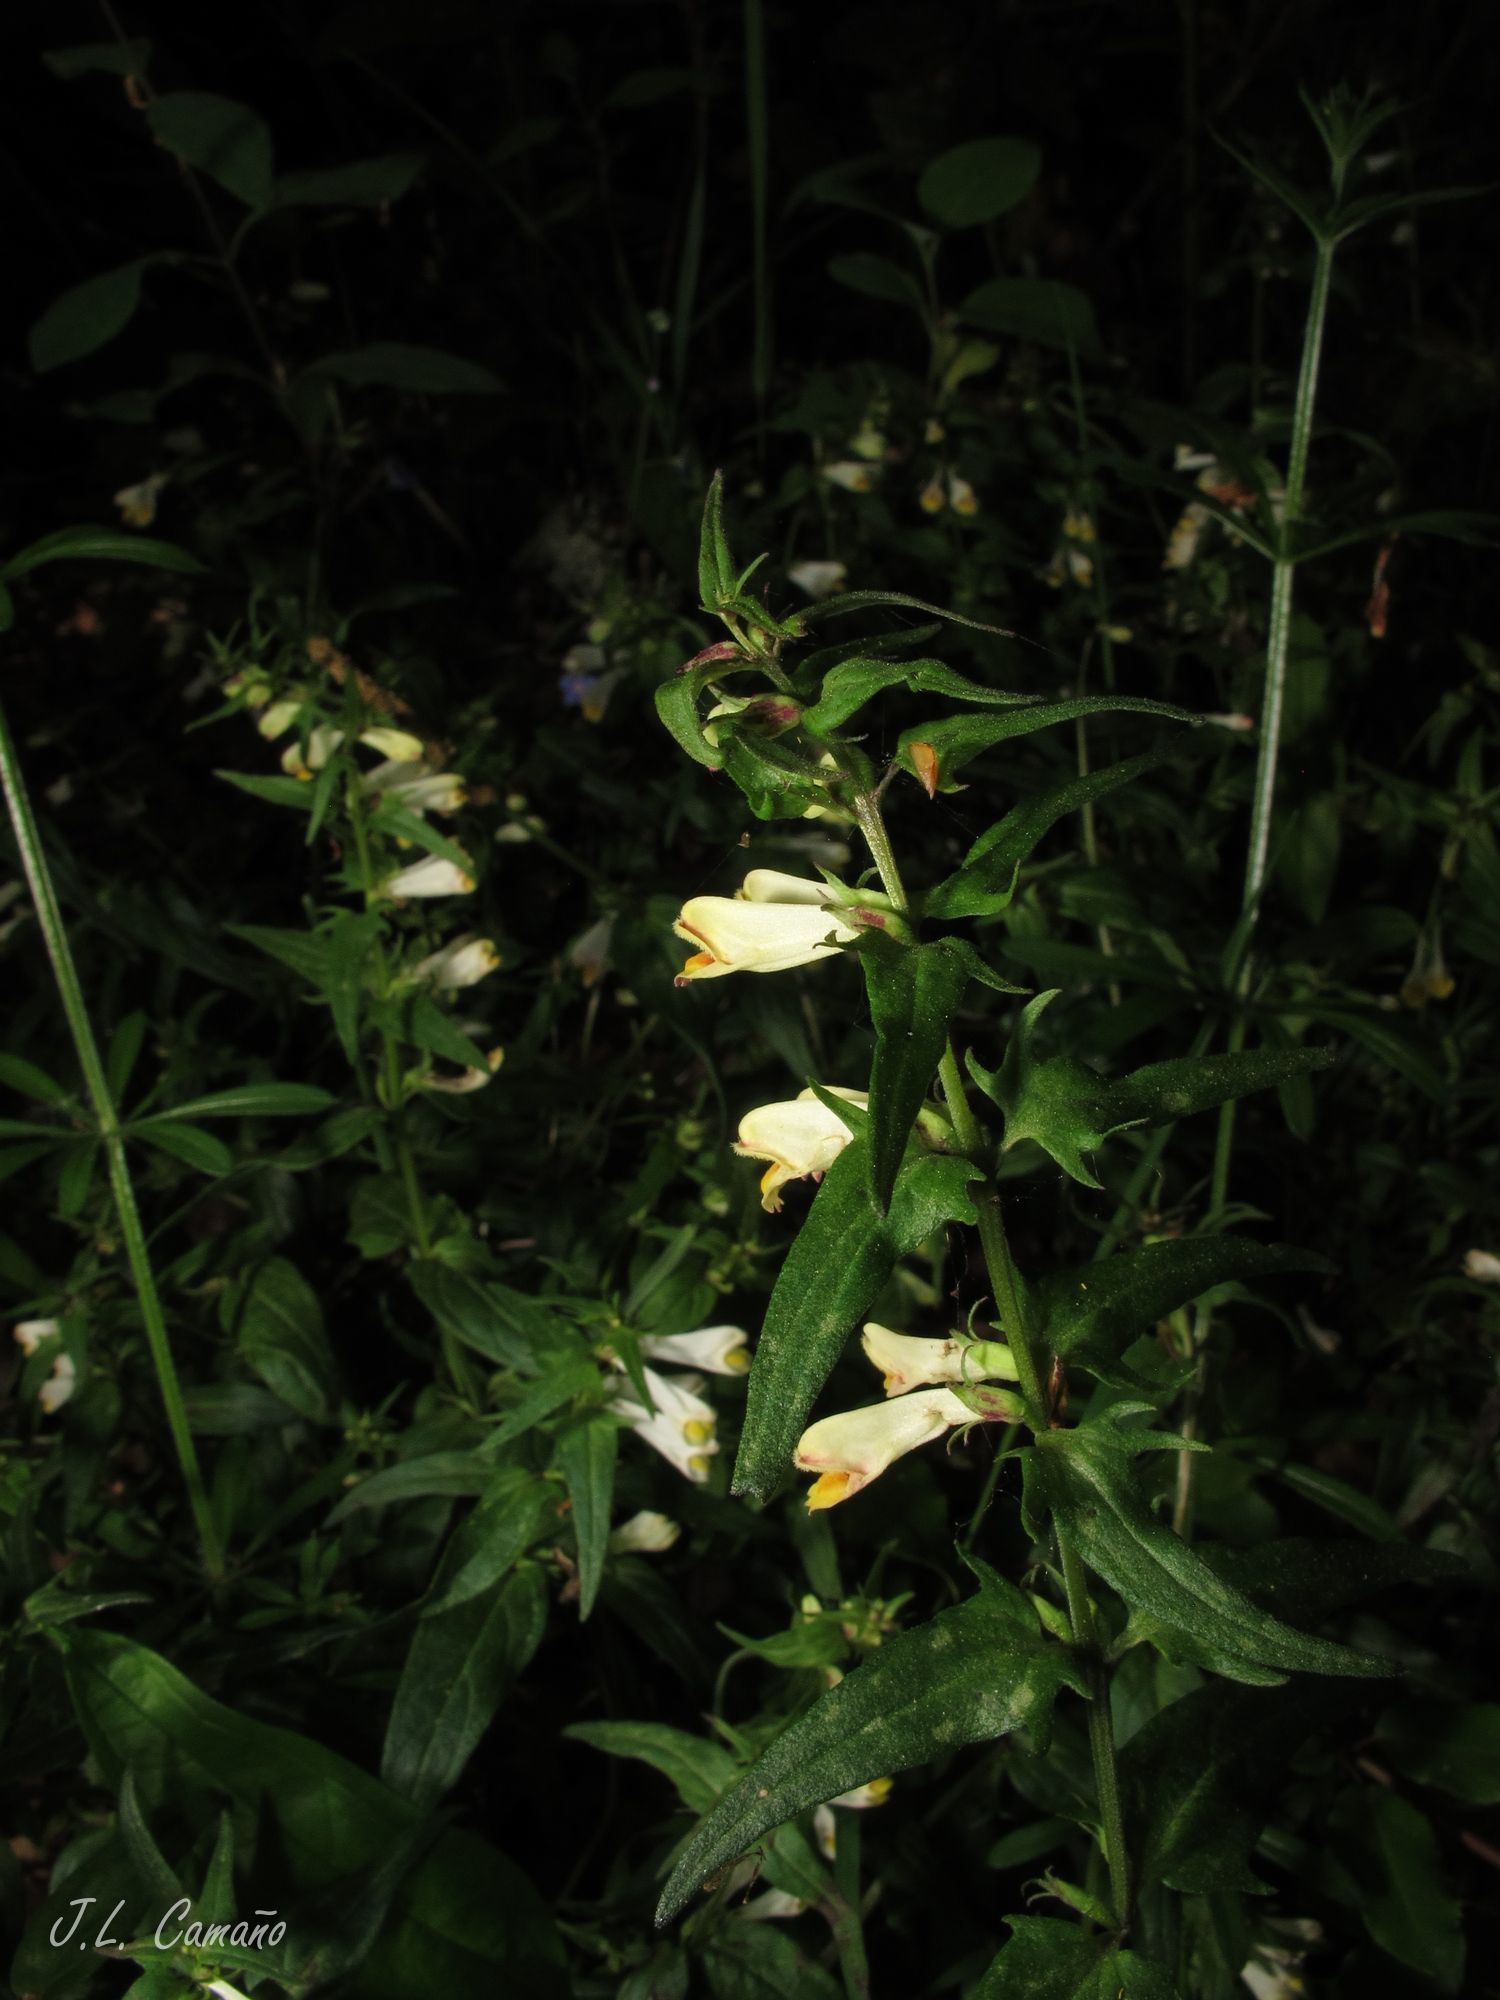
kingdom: Plantae
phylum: Tracheophyta
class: Magnoliopsida
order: Lamiales
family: Orobanchaceae
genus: Melampyrum
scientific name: Melampyrum pratense
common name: Common cow-wheat
